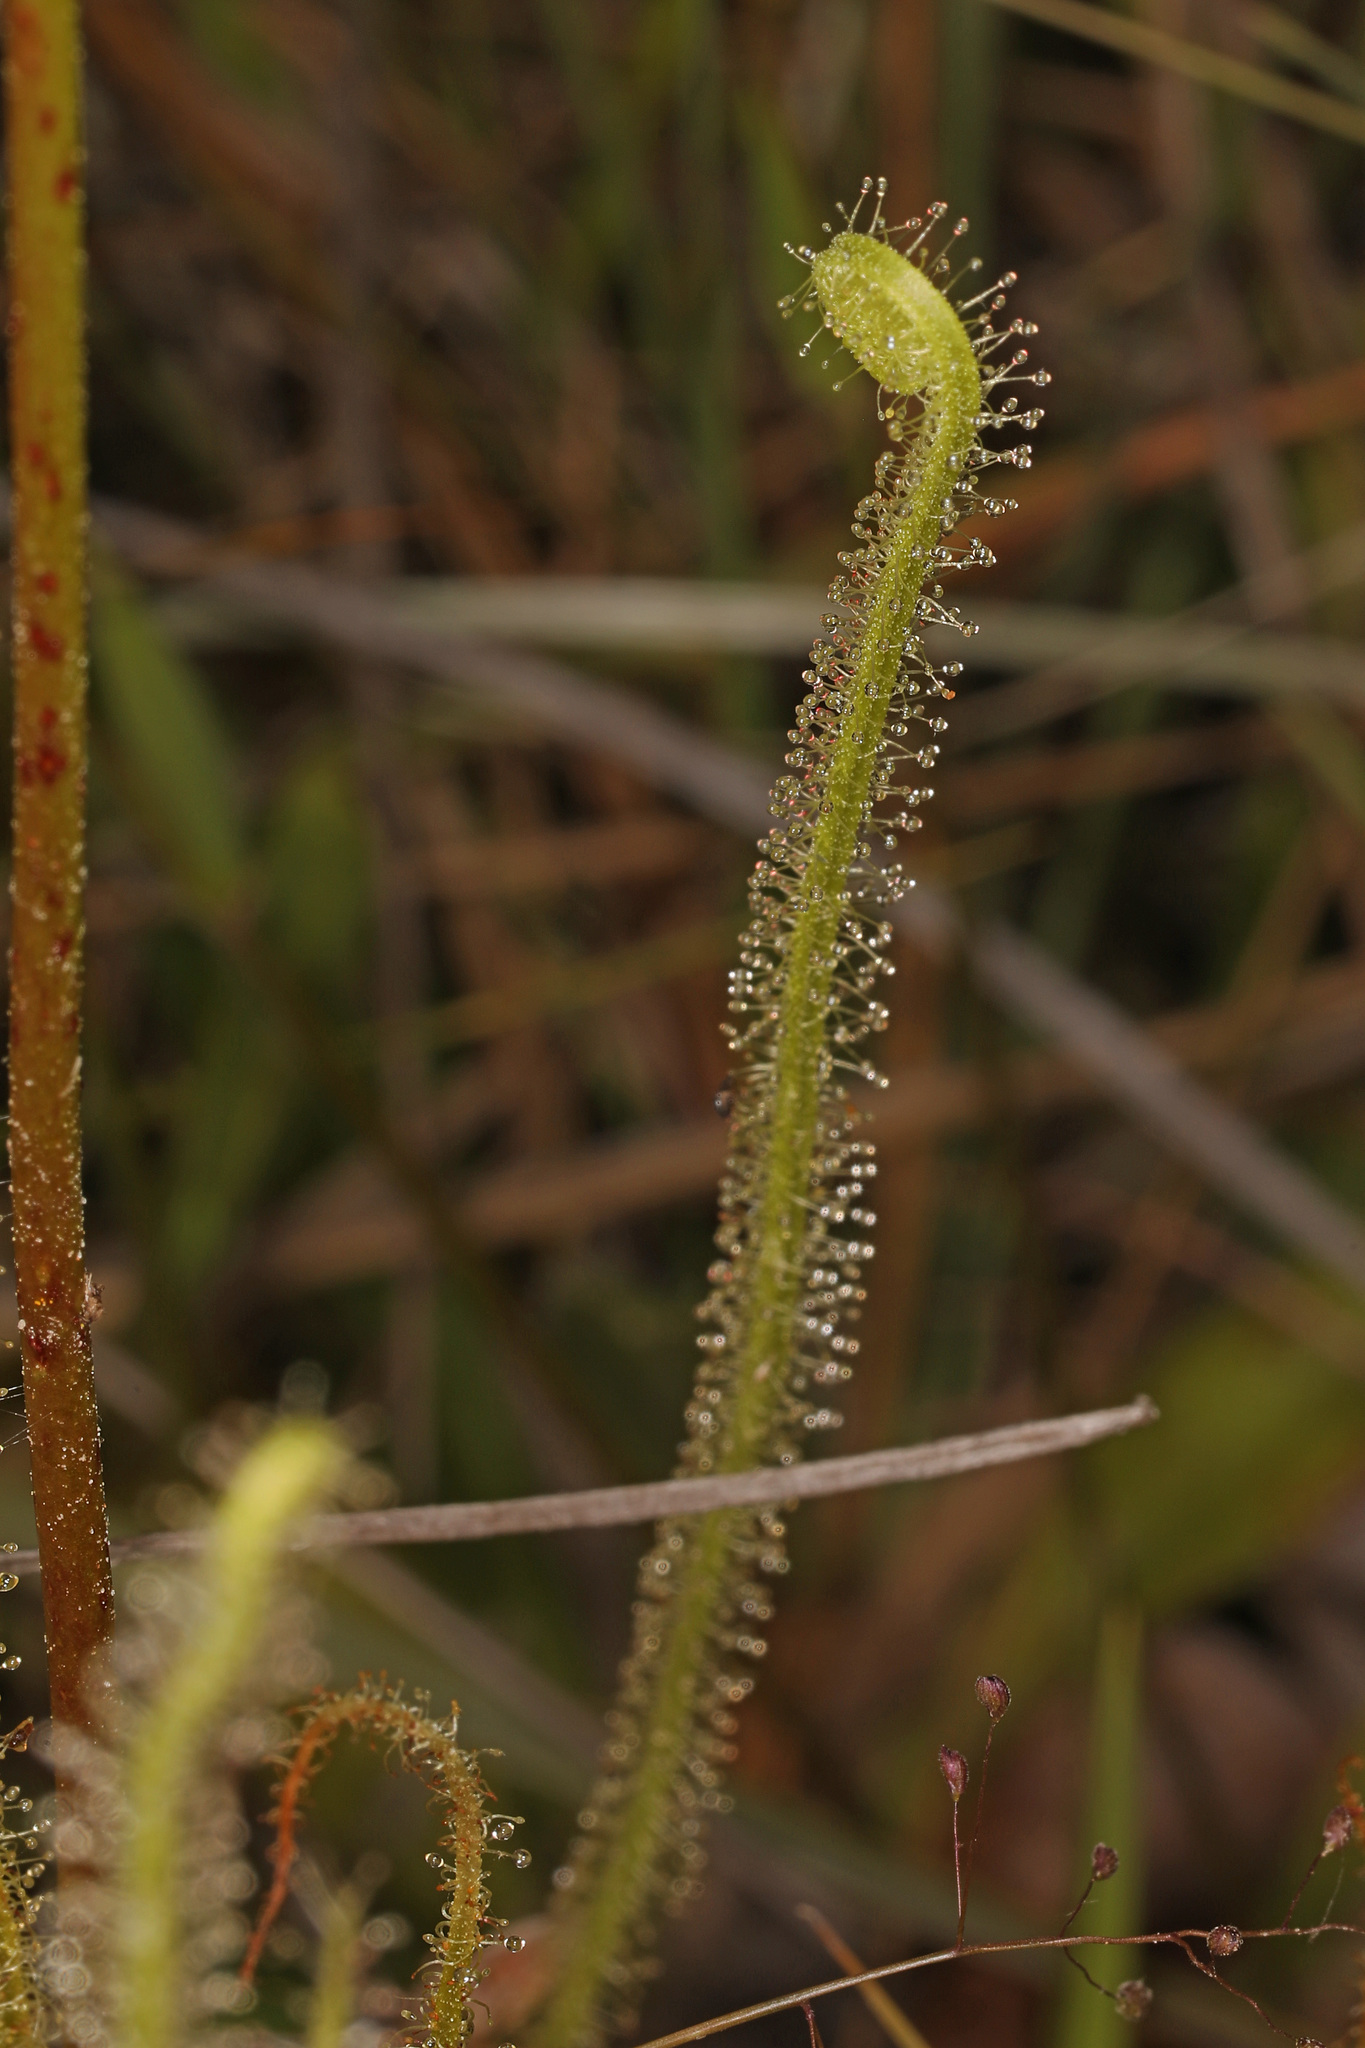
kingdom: Plantae
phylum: Tracheophyta
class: Magnoliopsida
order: Caryophyllales
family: Droseraceae
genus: Drosera
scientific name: Drosera filiformis
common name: Dew-thread
